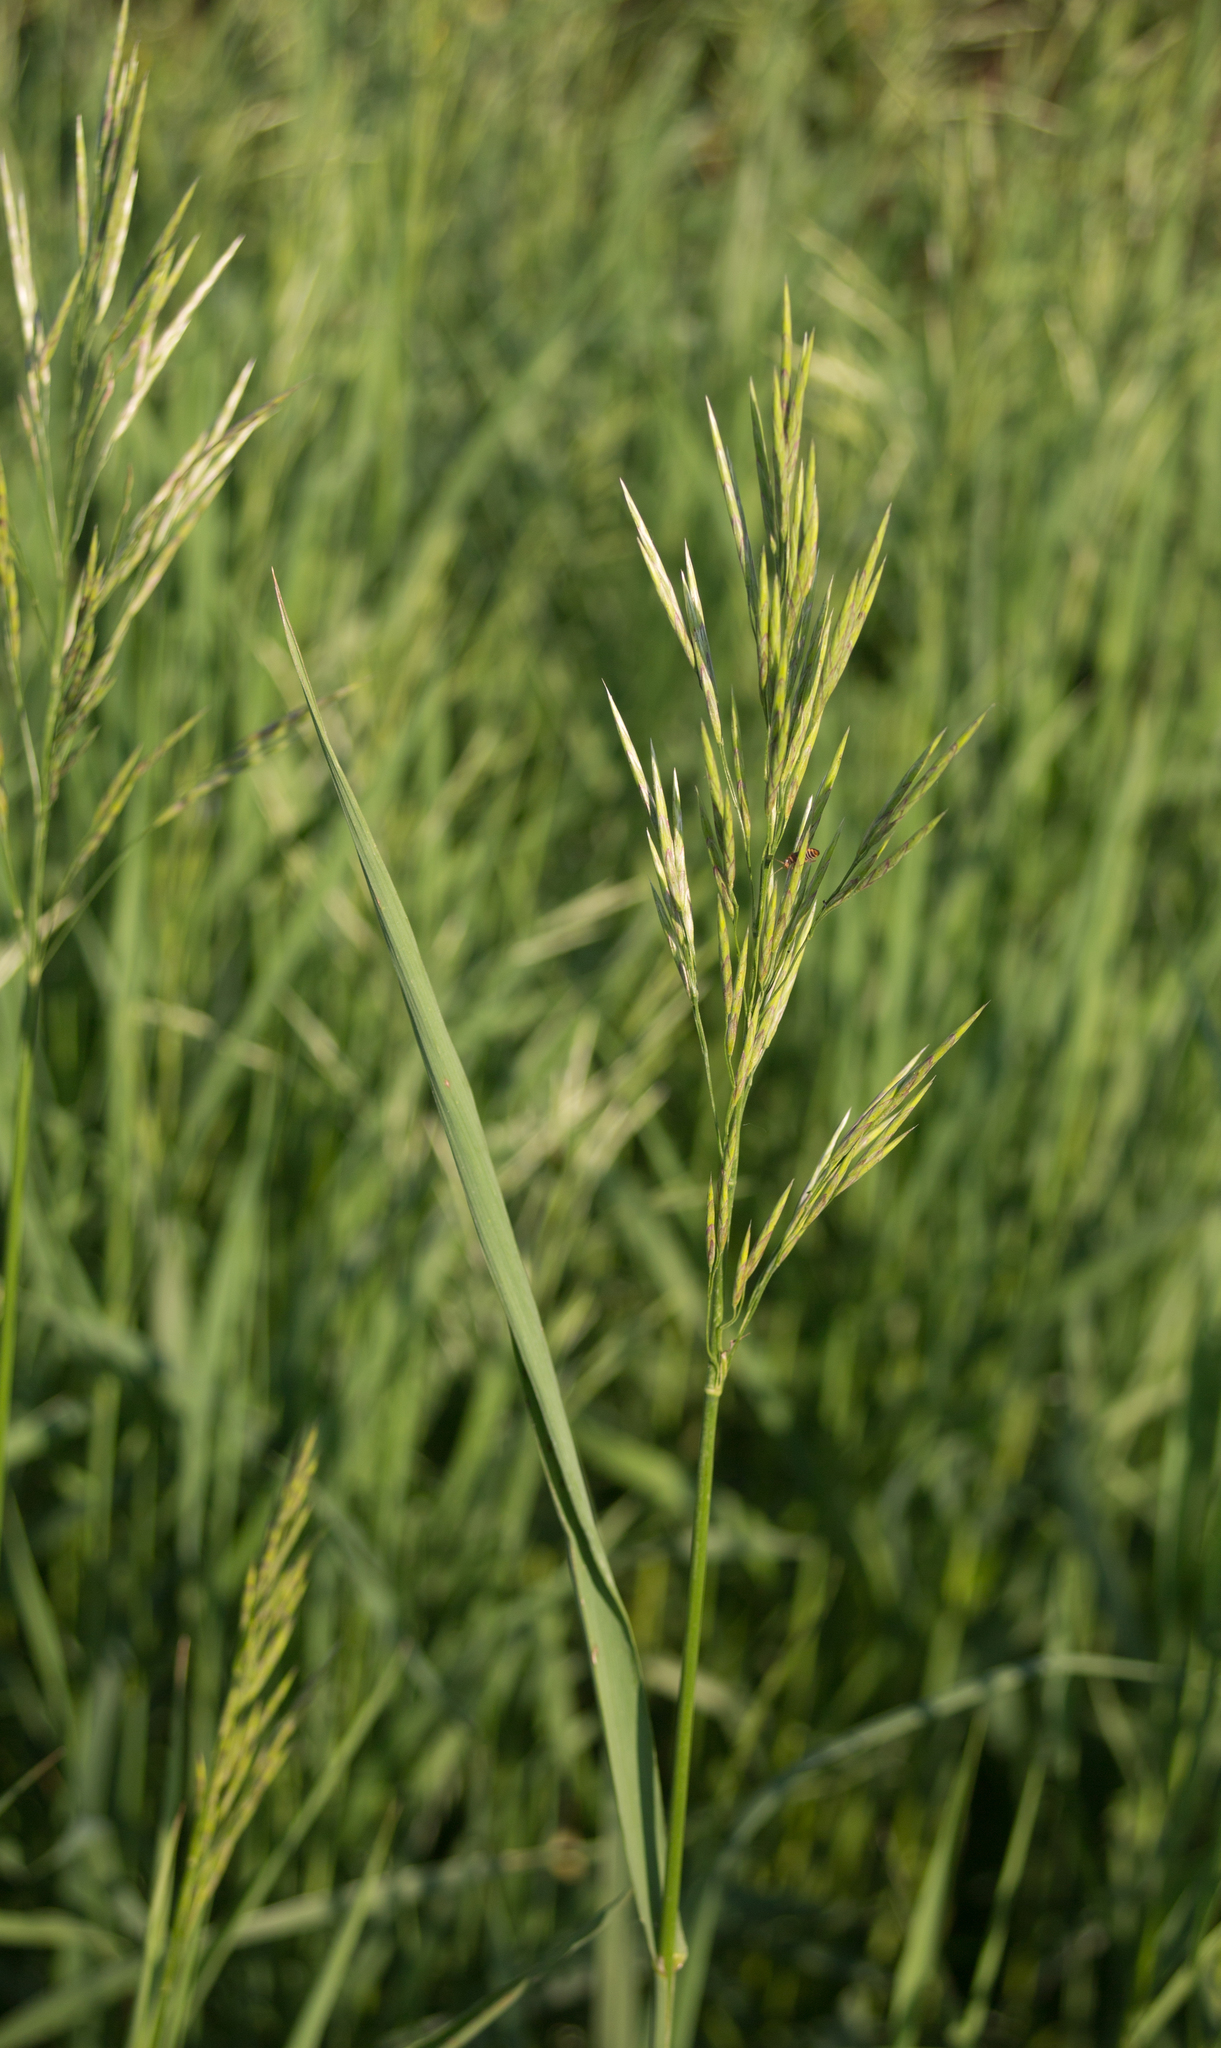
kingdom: Plantae
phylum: Tracheophyta
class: Liliopsida
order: Poales
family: Poaceae
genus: Bromus
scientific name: Bromus inermis
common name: Smooth brome
